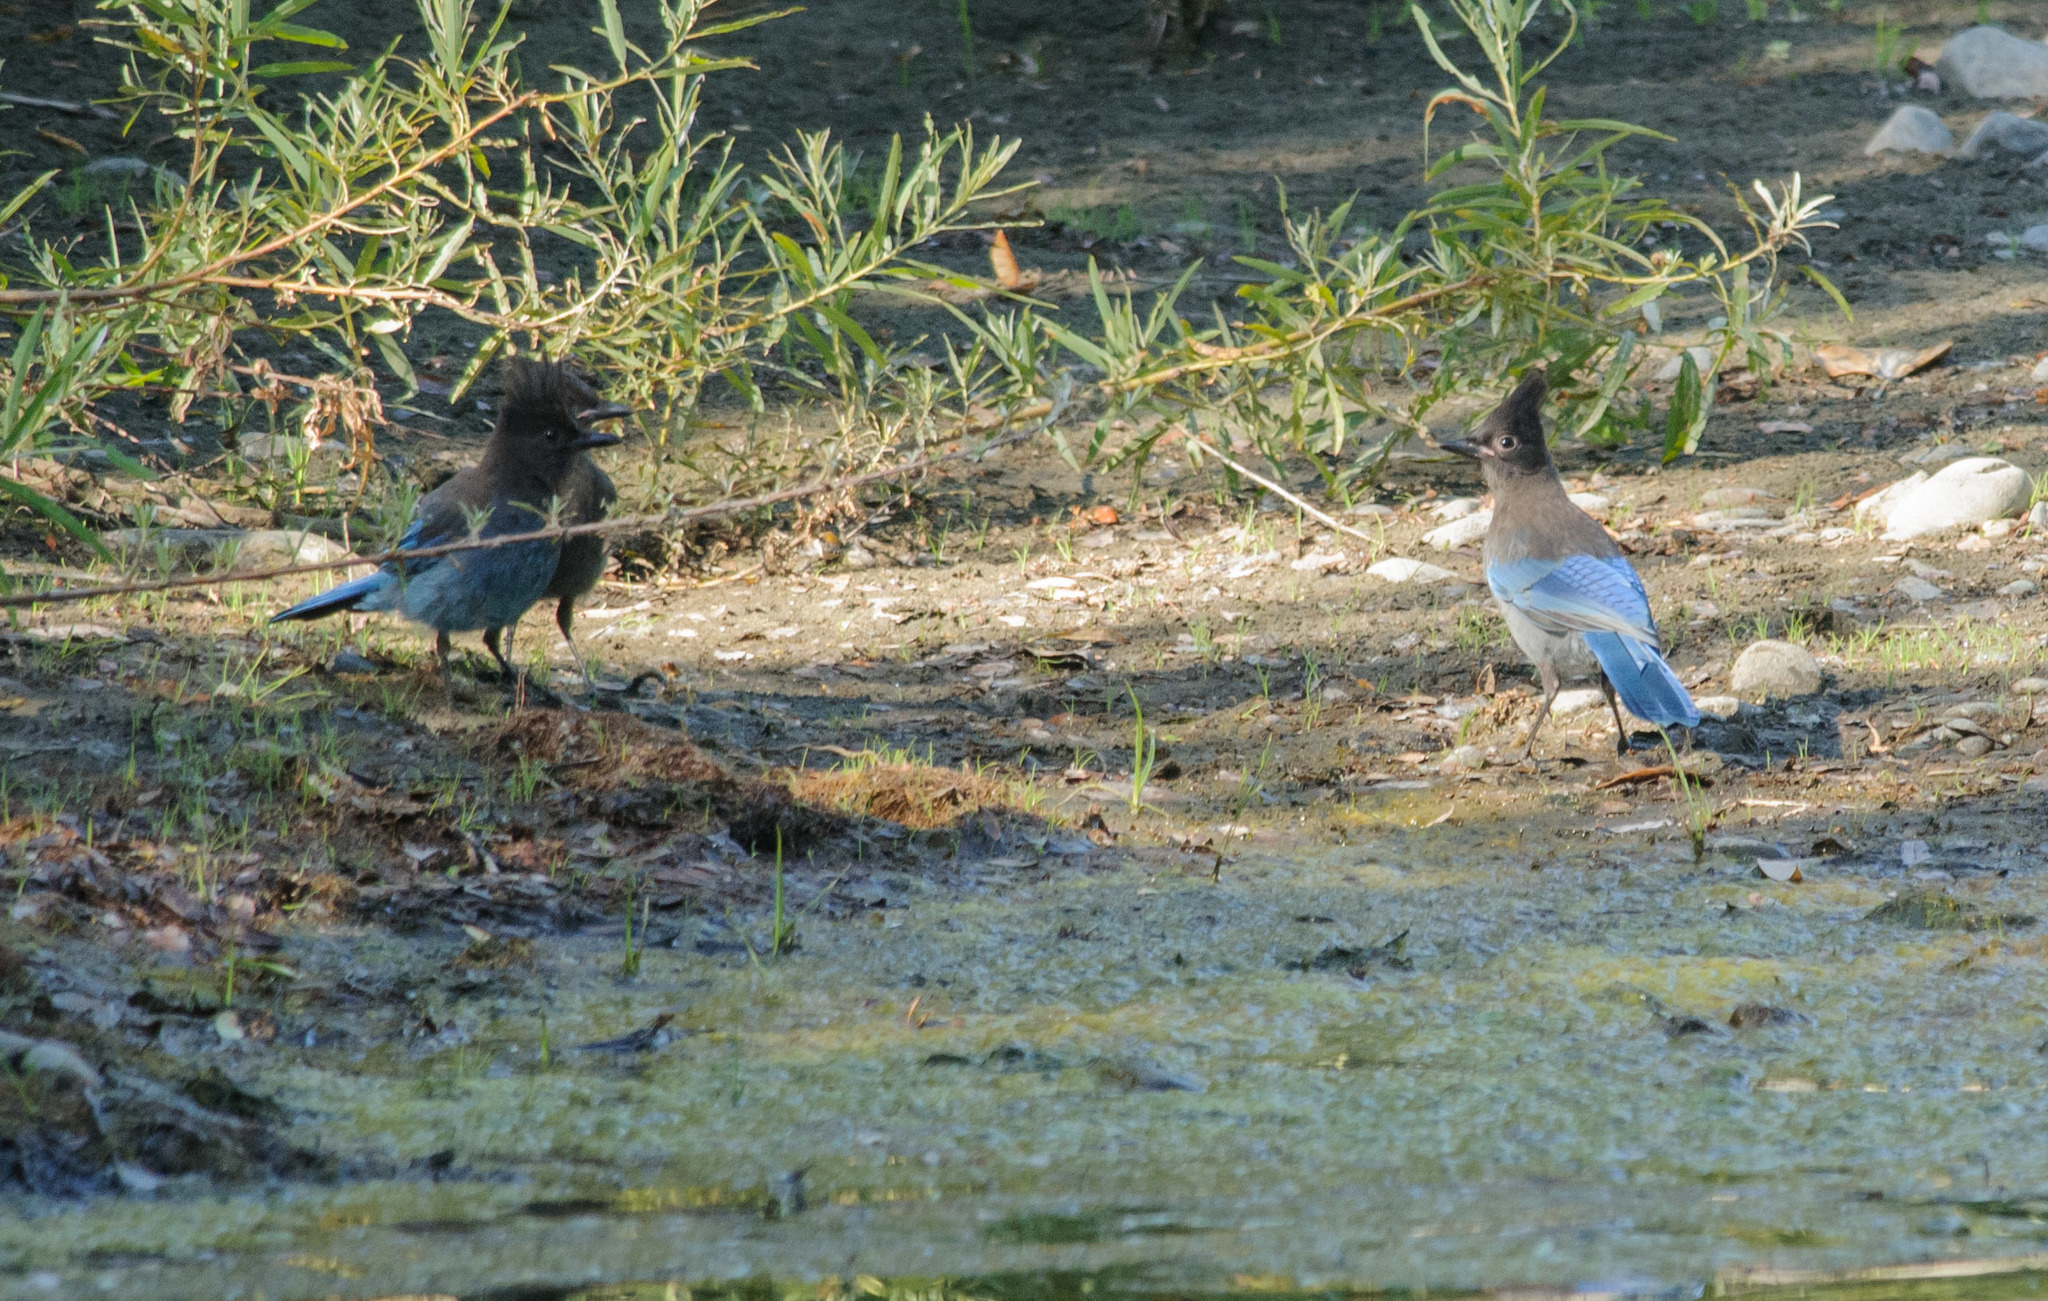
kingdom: Animalia
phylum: Chordata
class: Aves
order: Passeriformes
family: Corvidae
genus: Cyanocitta
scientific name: Cyanocitta stelleri
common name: Steller's jay
